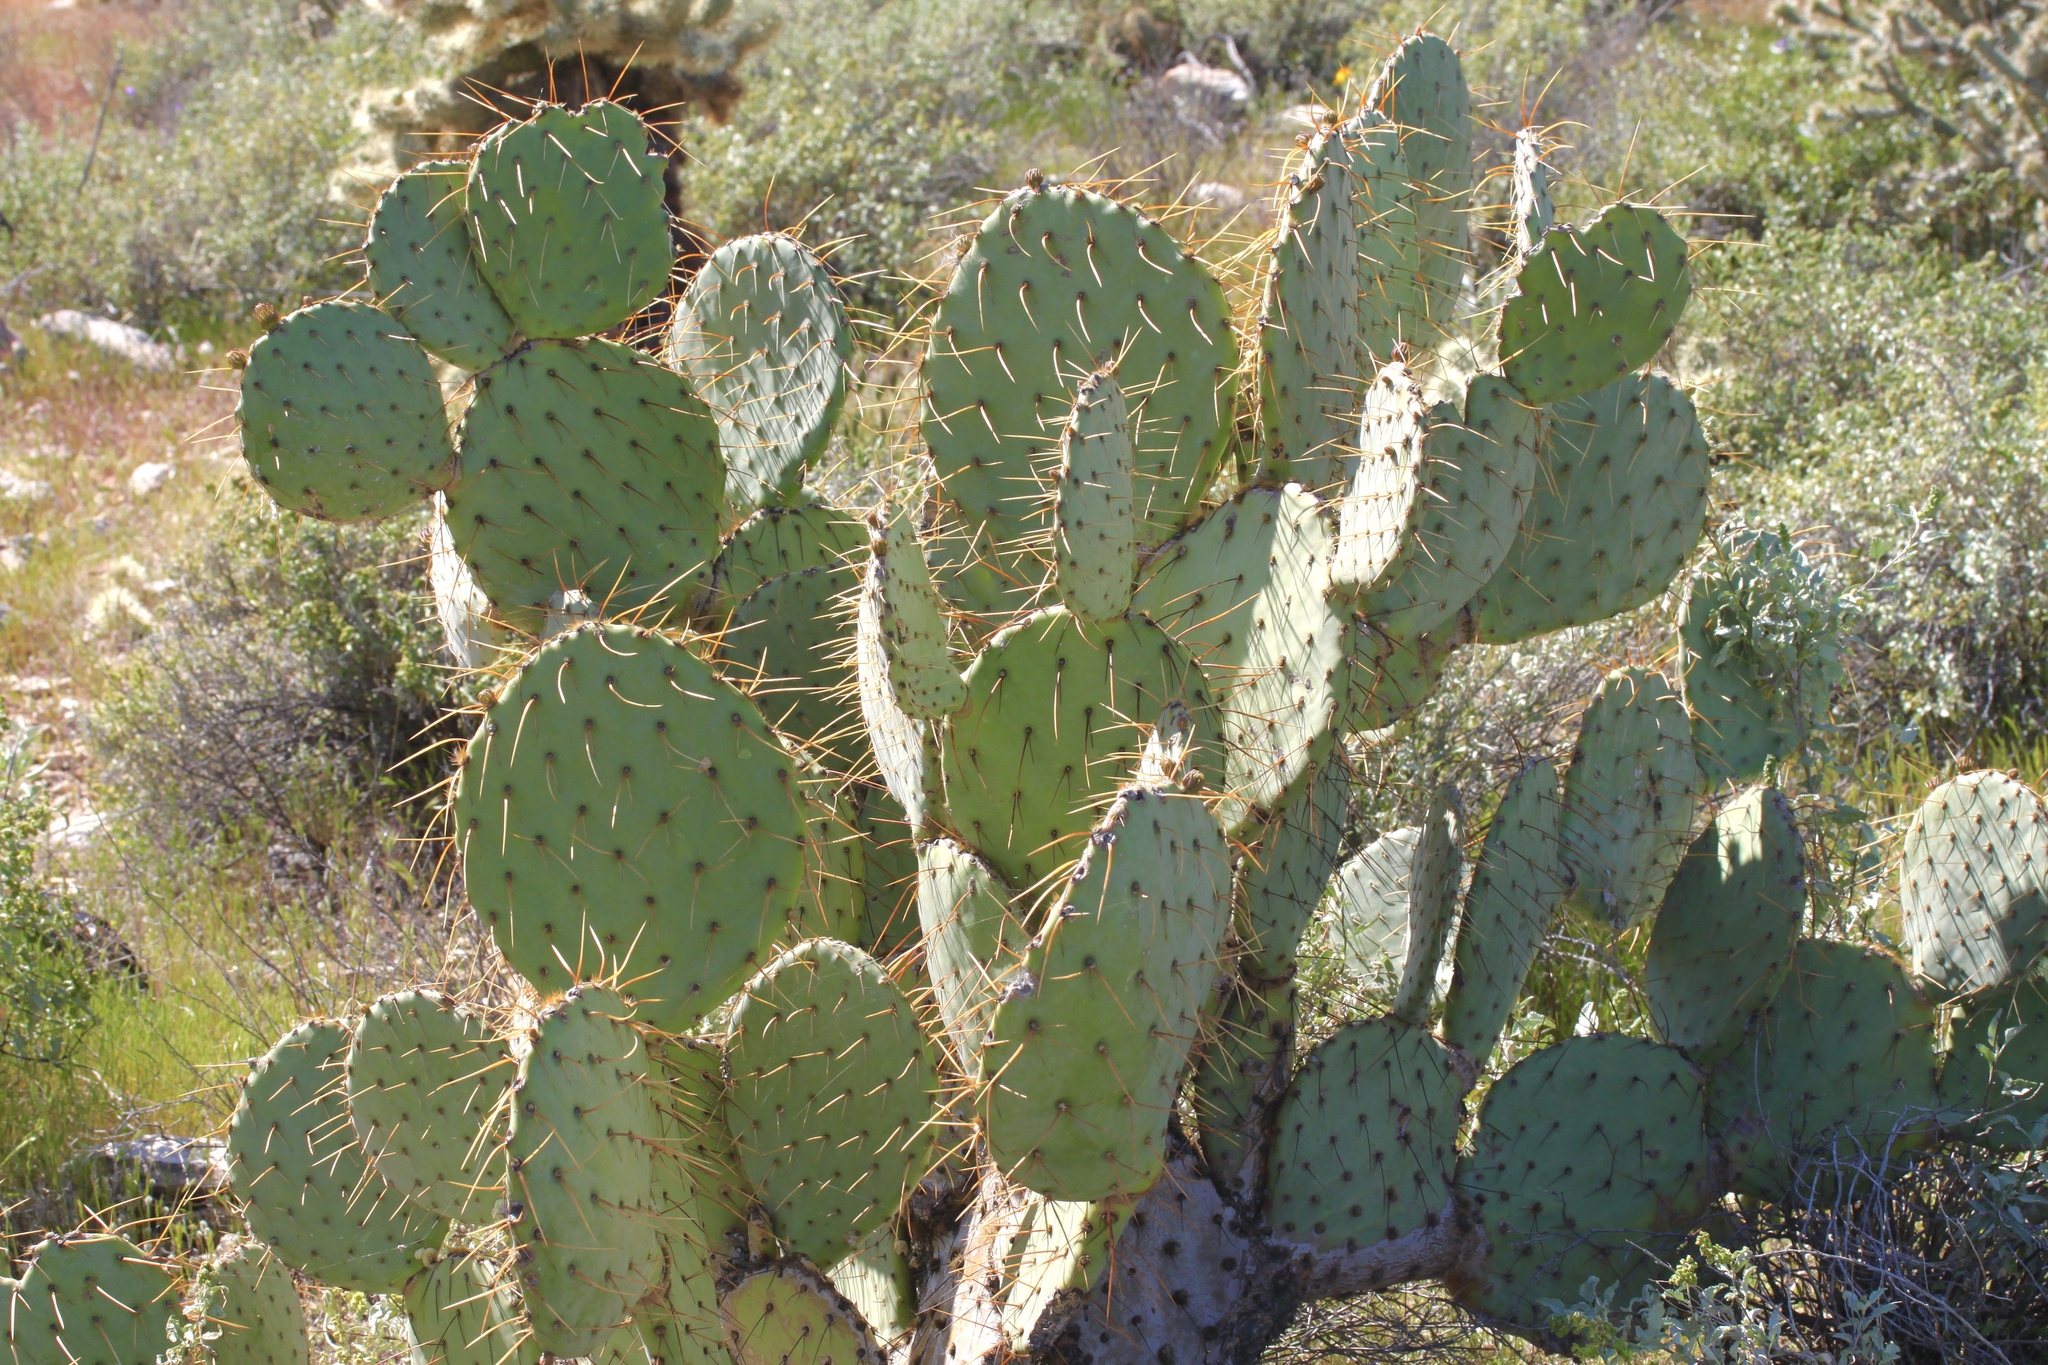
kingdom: Plantae
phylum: Tracheophyta
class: Magnoliopsida
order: Caryophyllales
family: Cactaceae
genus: Opuntia
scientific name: Opuntia engelmannii
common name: Cactus-apple
